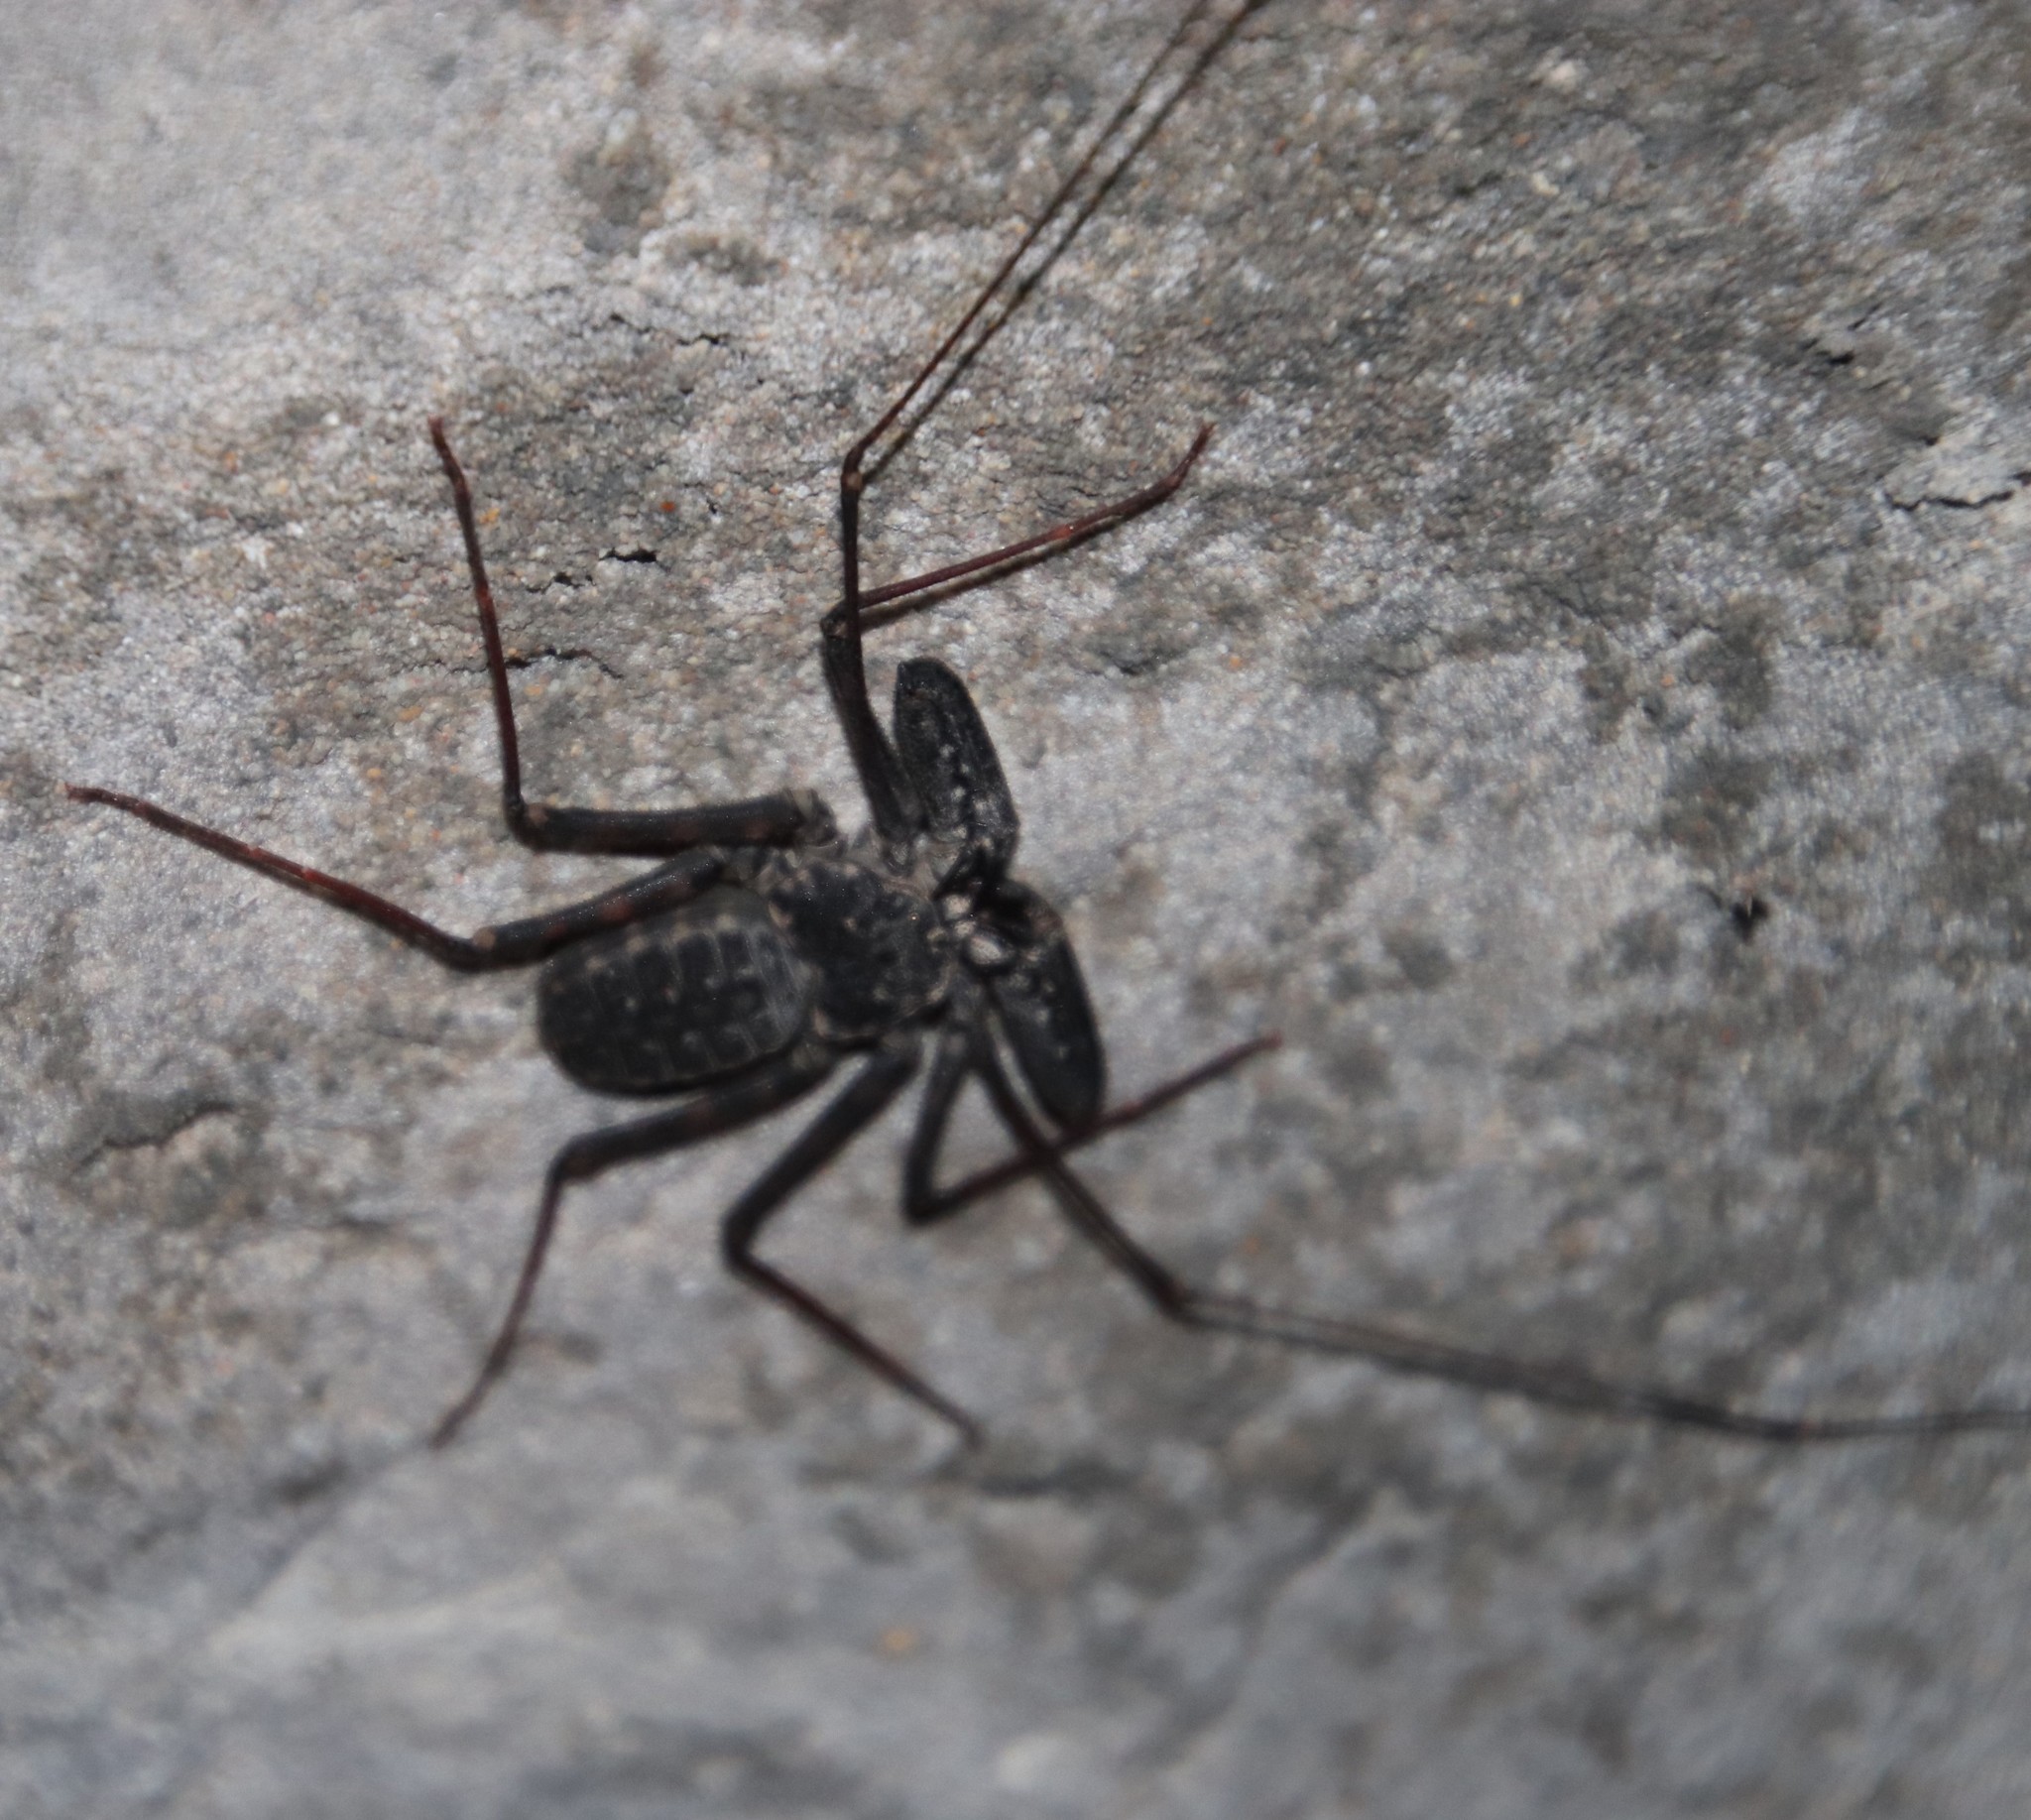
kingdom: Animalia
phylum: Arthropoda
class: Arachnida
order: Amblypygi
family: Phrynichidae
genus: Damon
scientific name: Damon annulatipes
